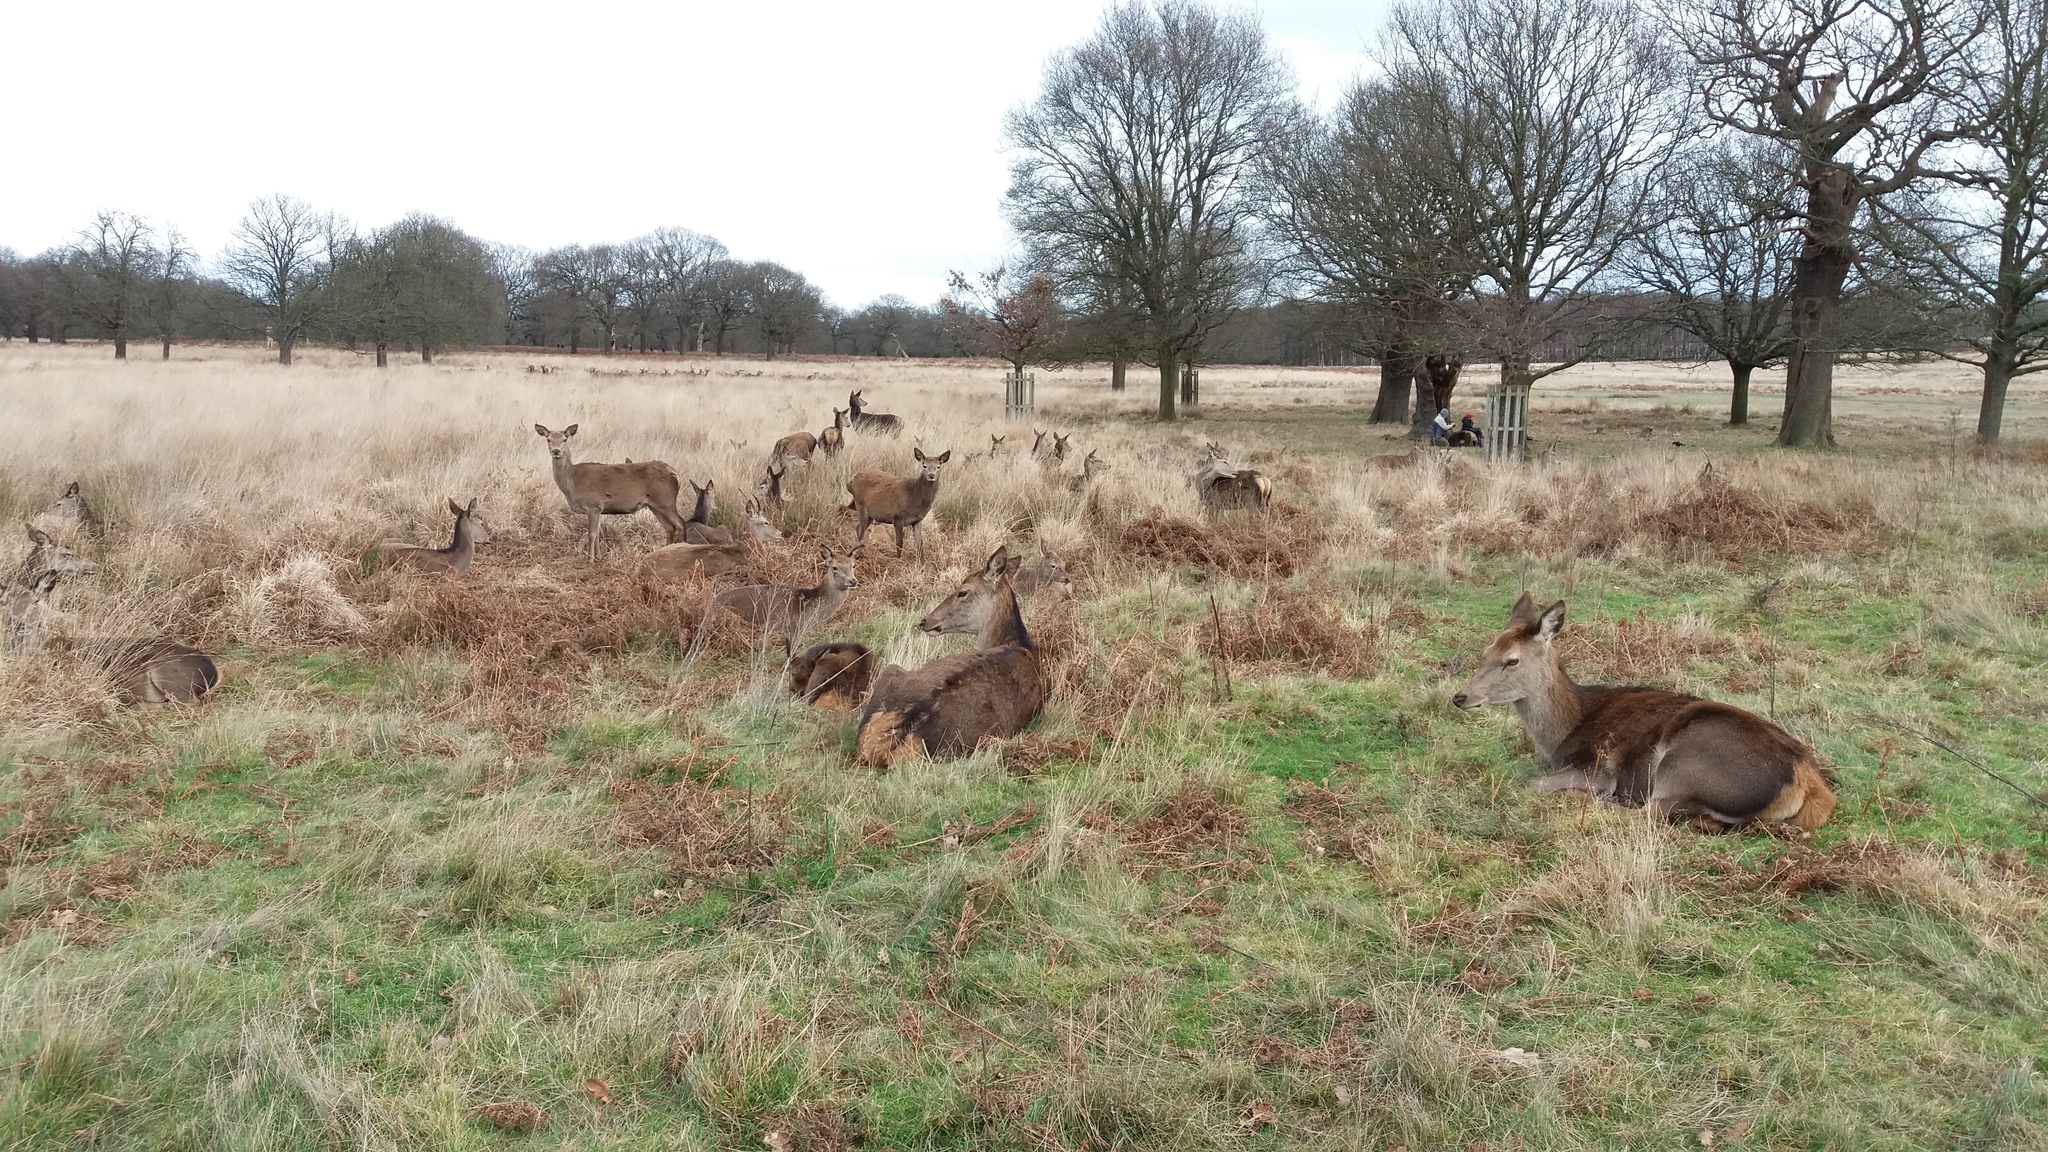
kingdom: Animalia
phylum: Chordata
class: Mammalia
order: Artiodactyla
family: Cervidae
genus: Cervus
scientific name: Cervus elaphus
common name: Red deer
